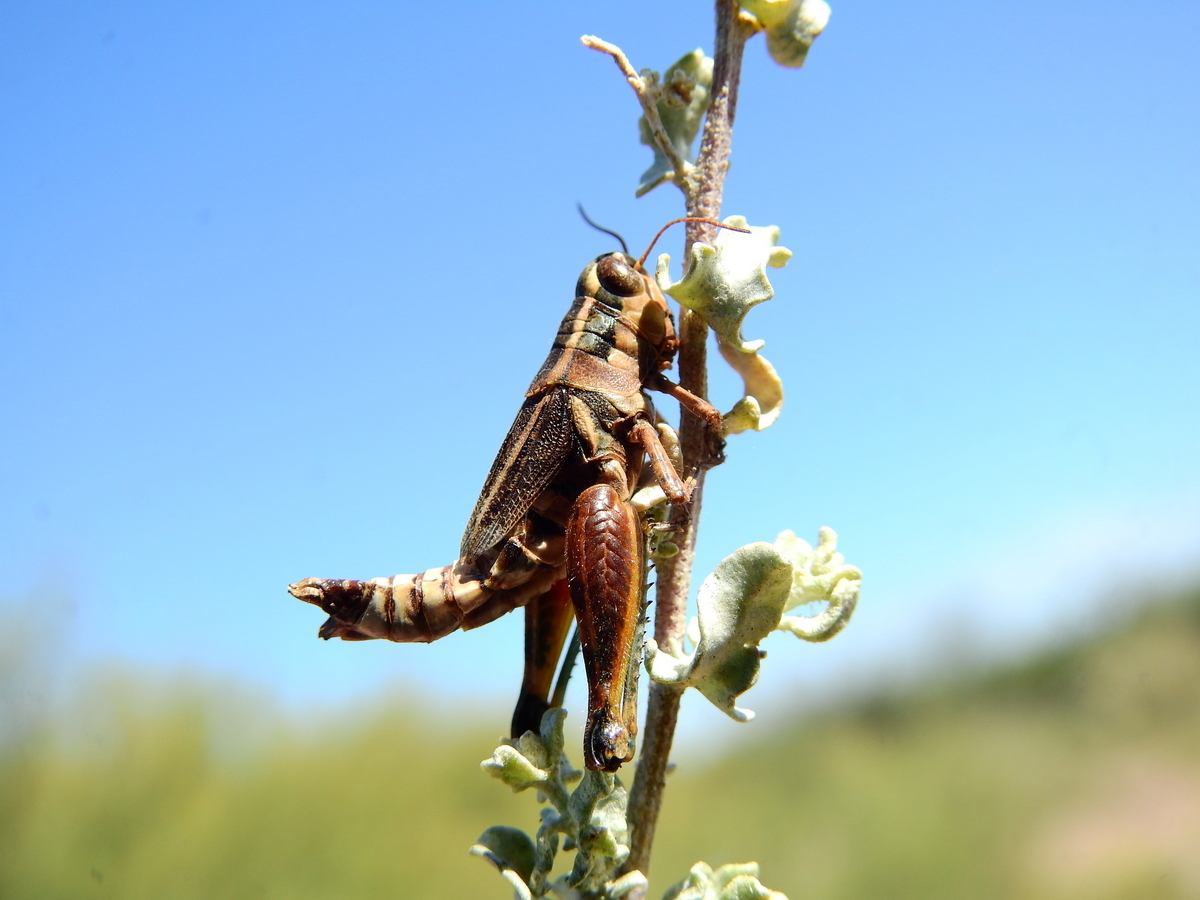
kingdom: Animalia
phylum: Arthropoda
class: Insecta
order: Orthoptera
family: Acrididae
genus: Dichroplus
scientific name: Dichroplus vittatus
